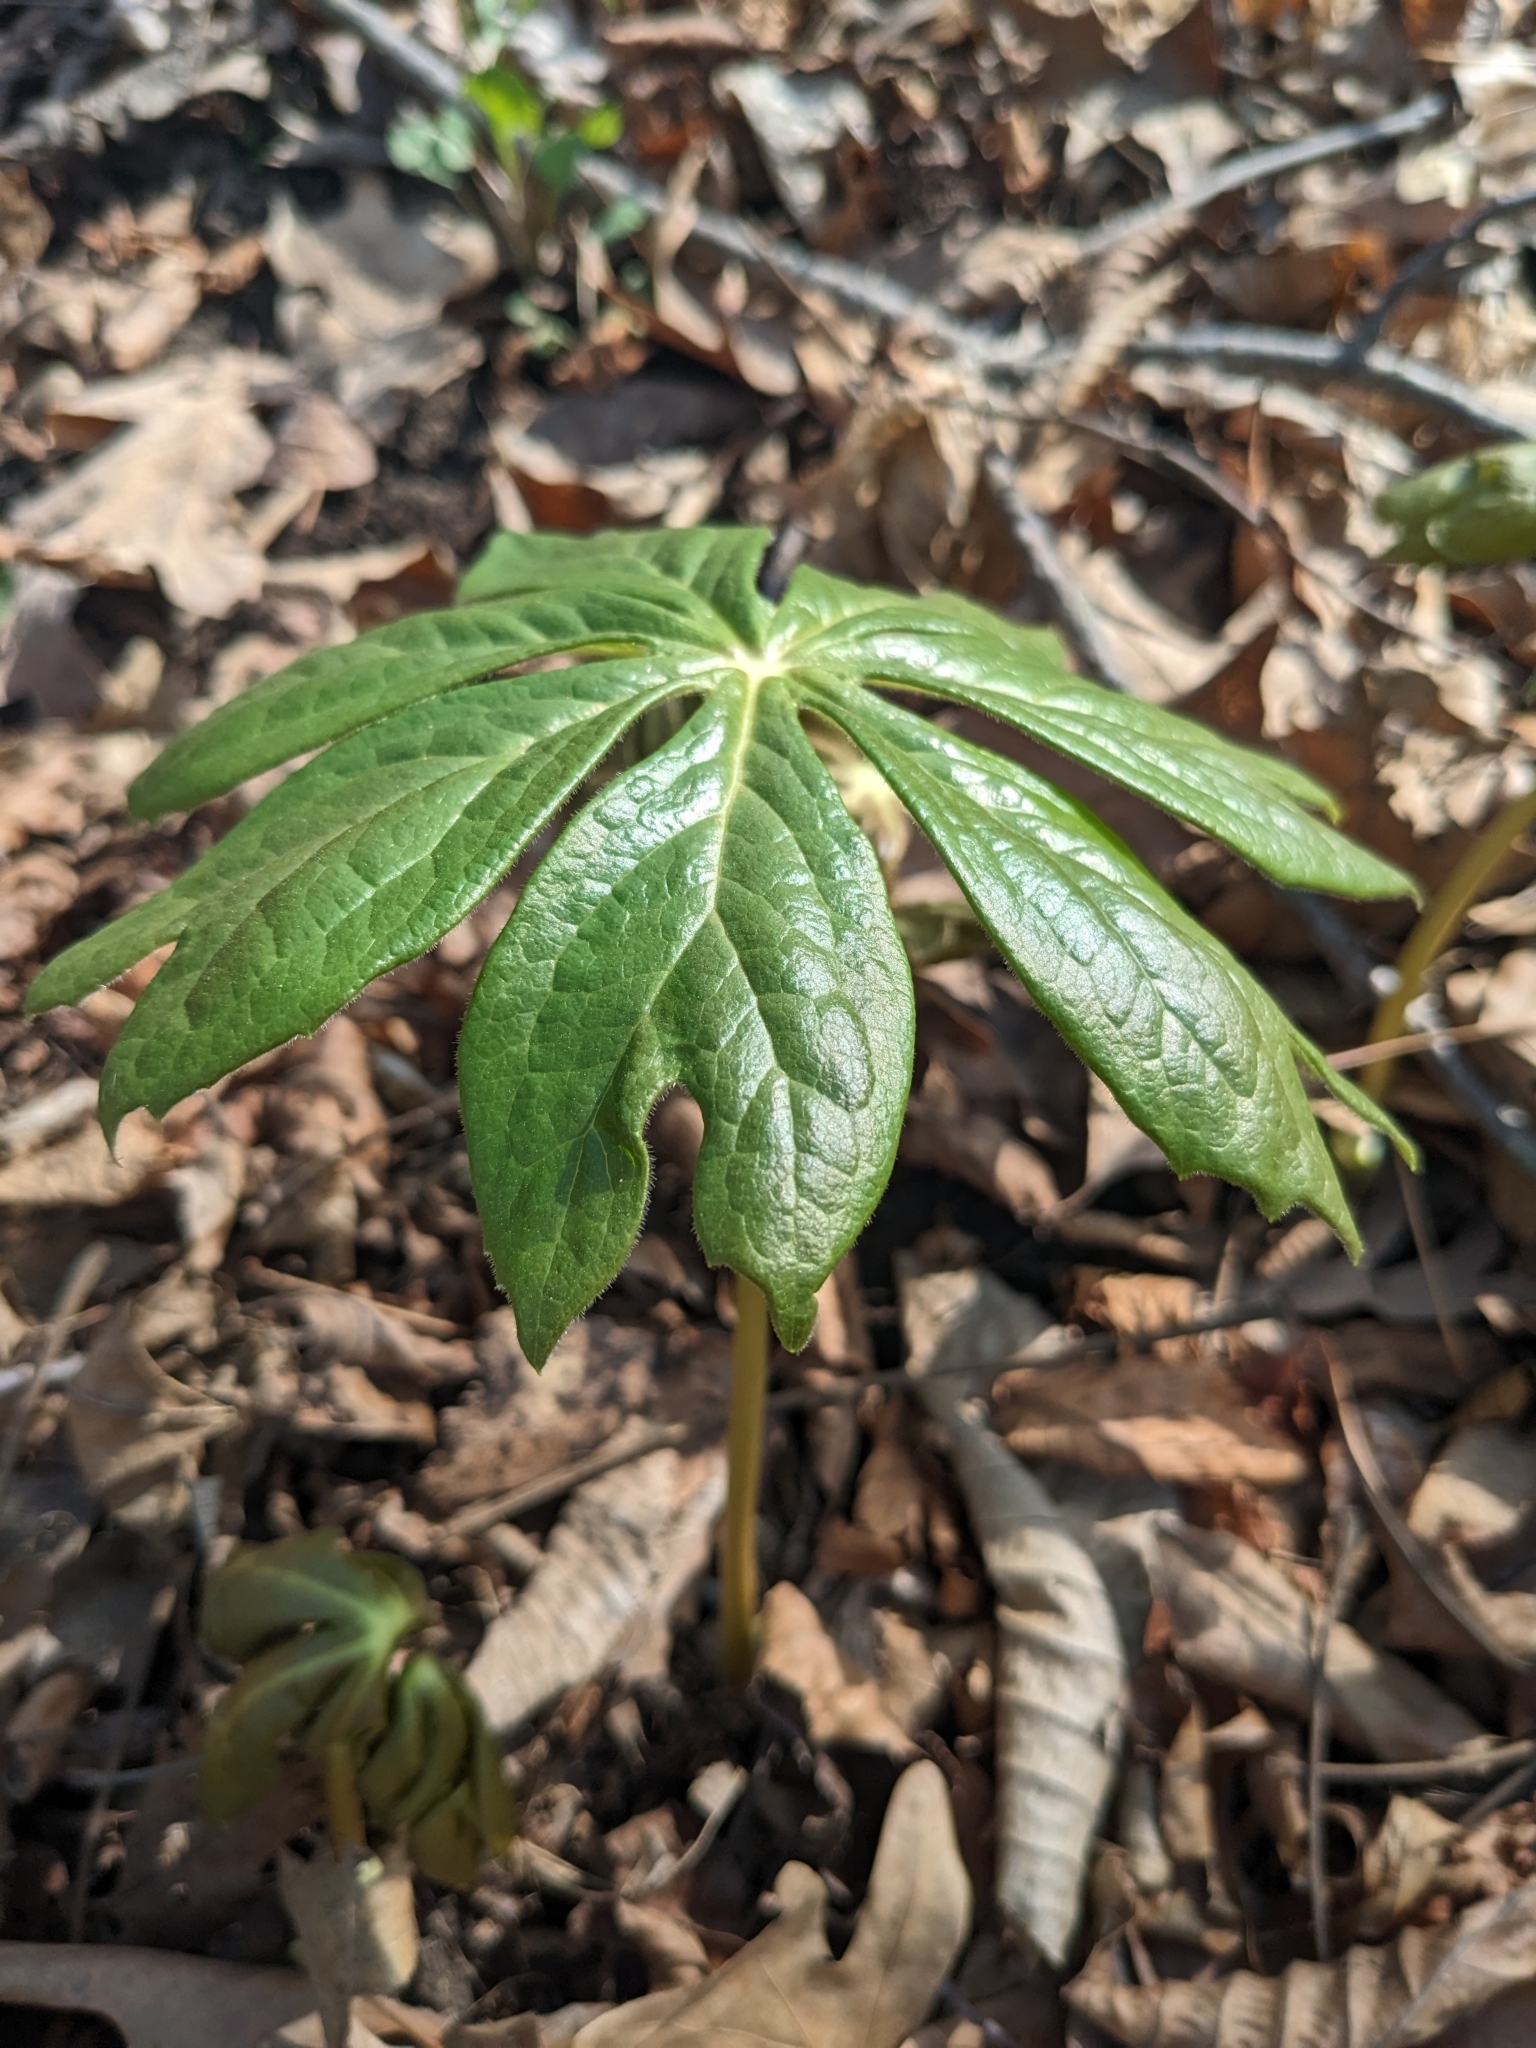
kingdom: Plantae
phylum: Tracheophyta
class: Magnoliopsida
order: Ranunculales
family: Berberidaceae
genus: Podophyllum
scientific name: Podophyllum peltatum
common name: Wild mandrake
